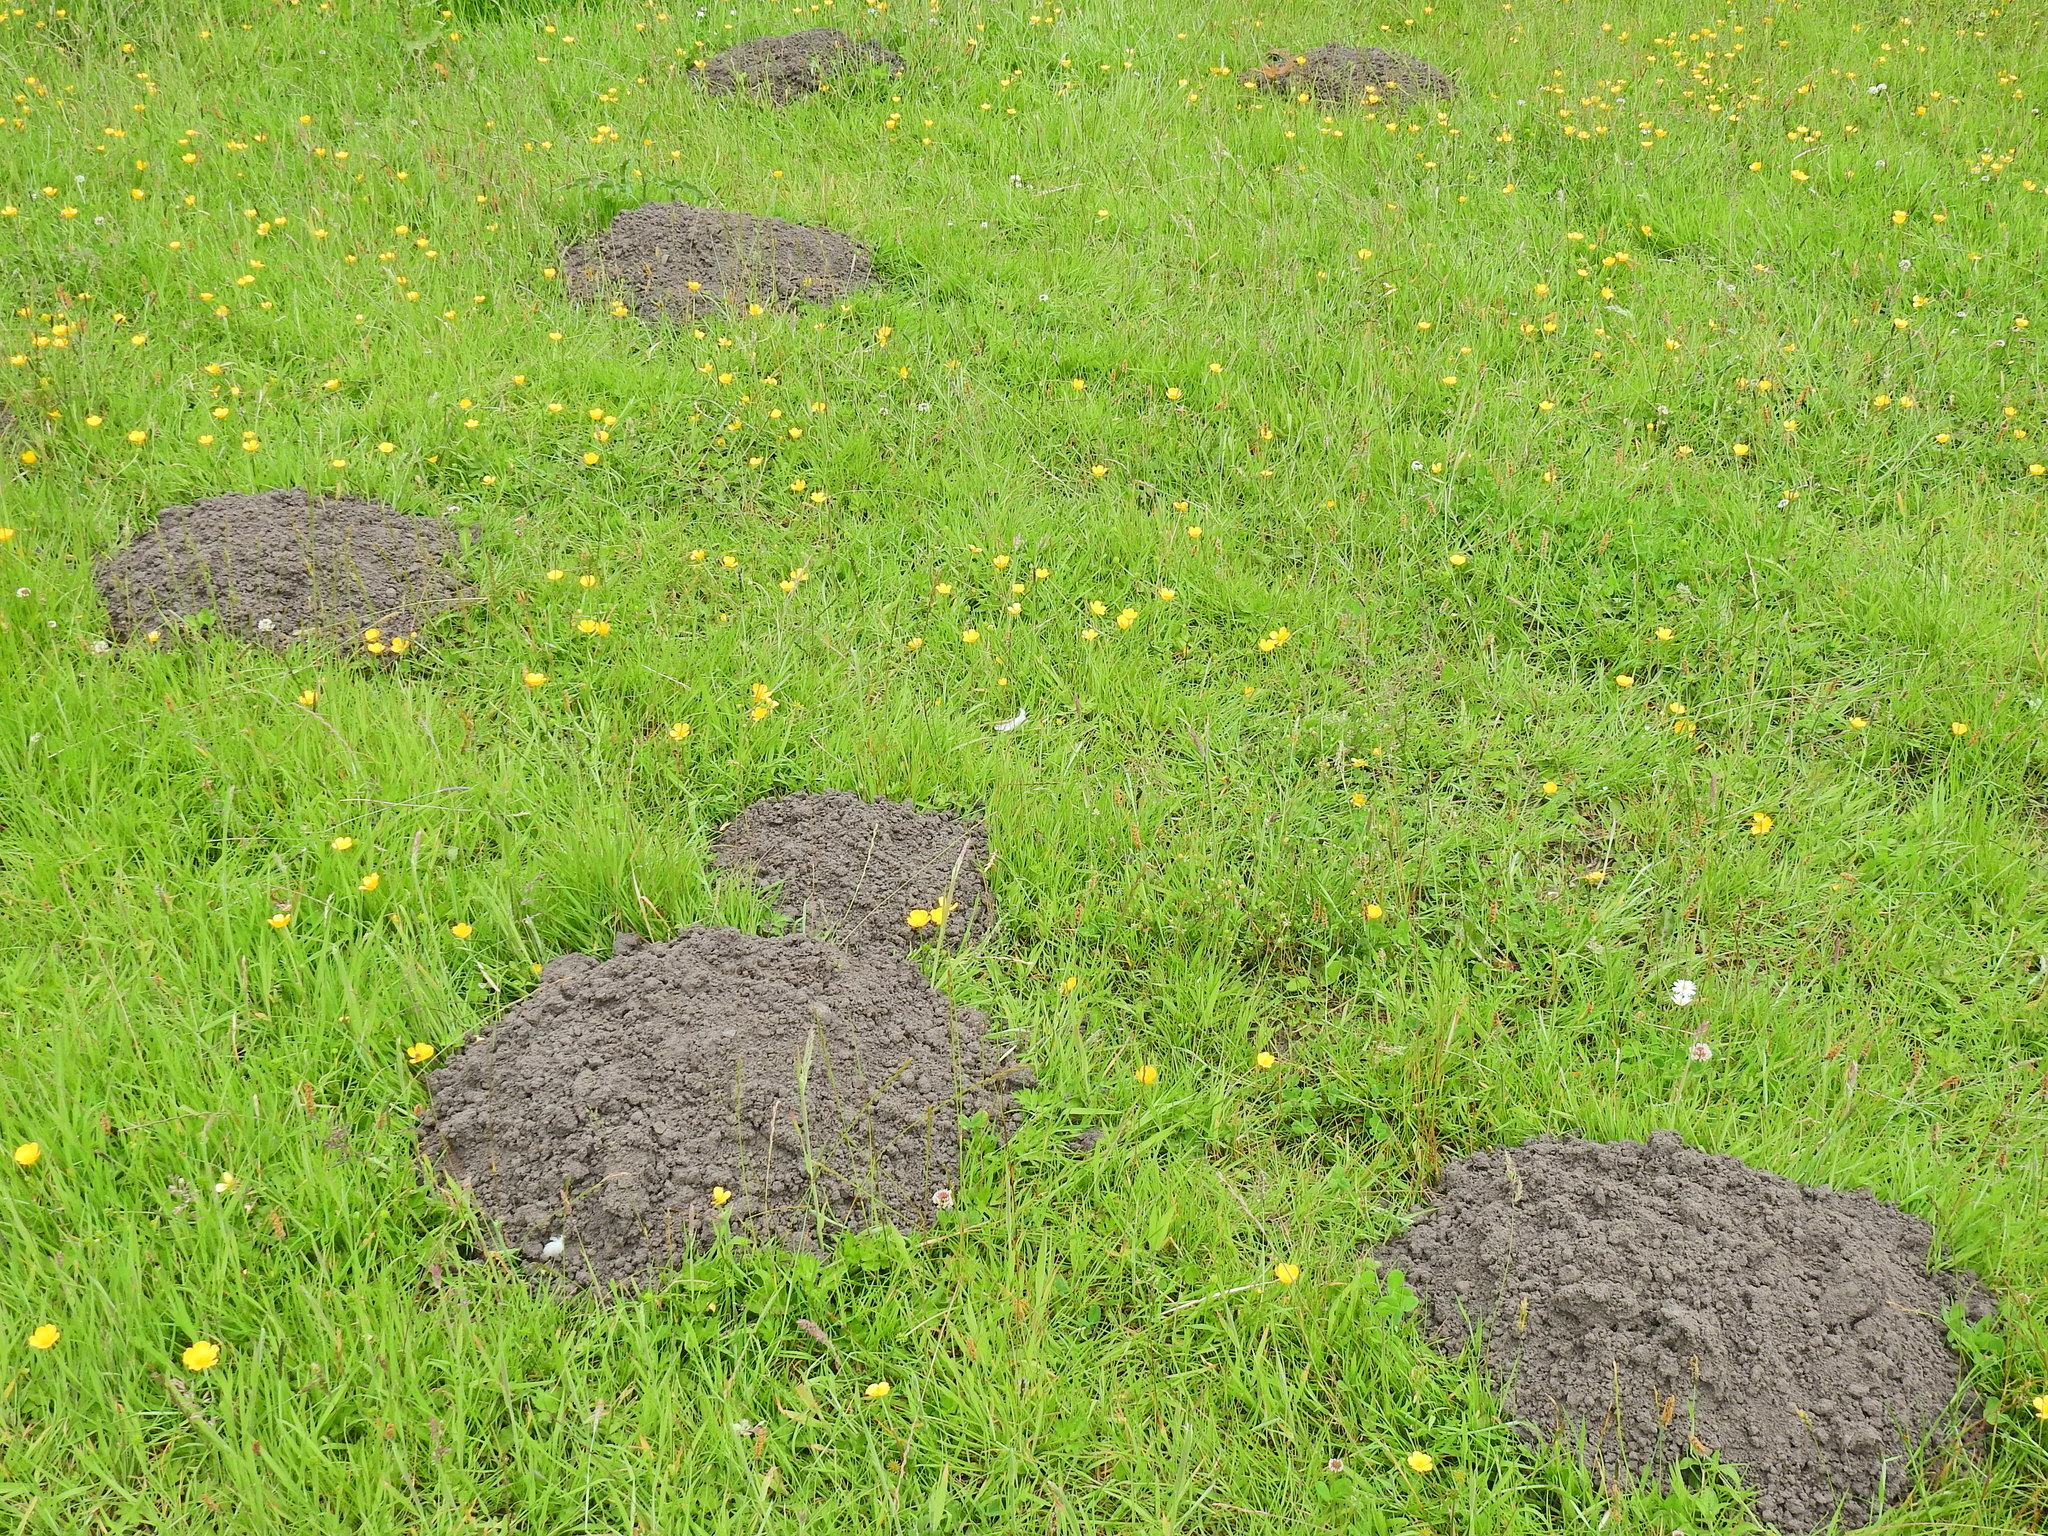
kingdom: Animalia
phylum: Chordata
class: Mammalia
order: Soricomorpha
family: Talpidae
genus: Talpa
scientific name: Talpa europaea
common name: European mole
